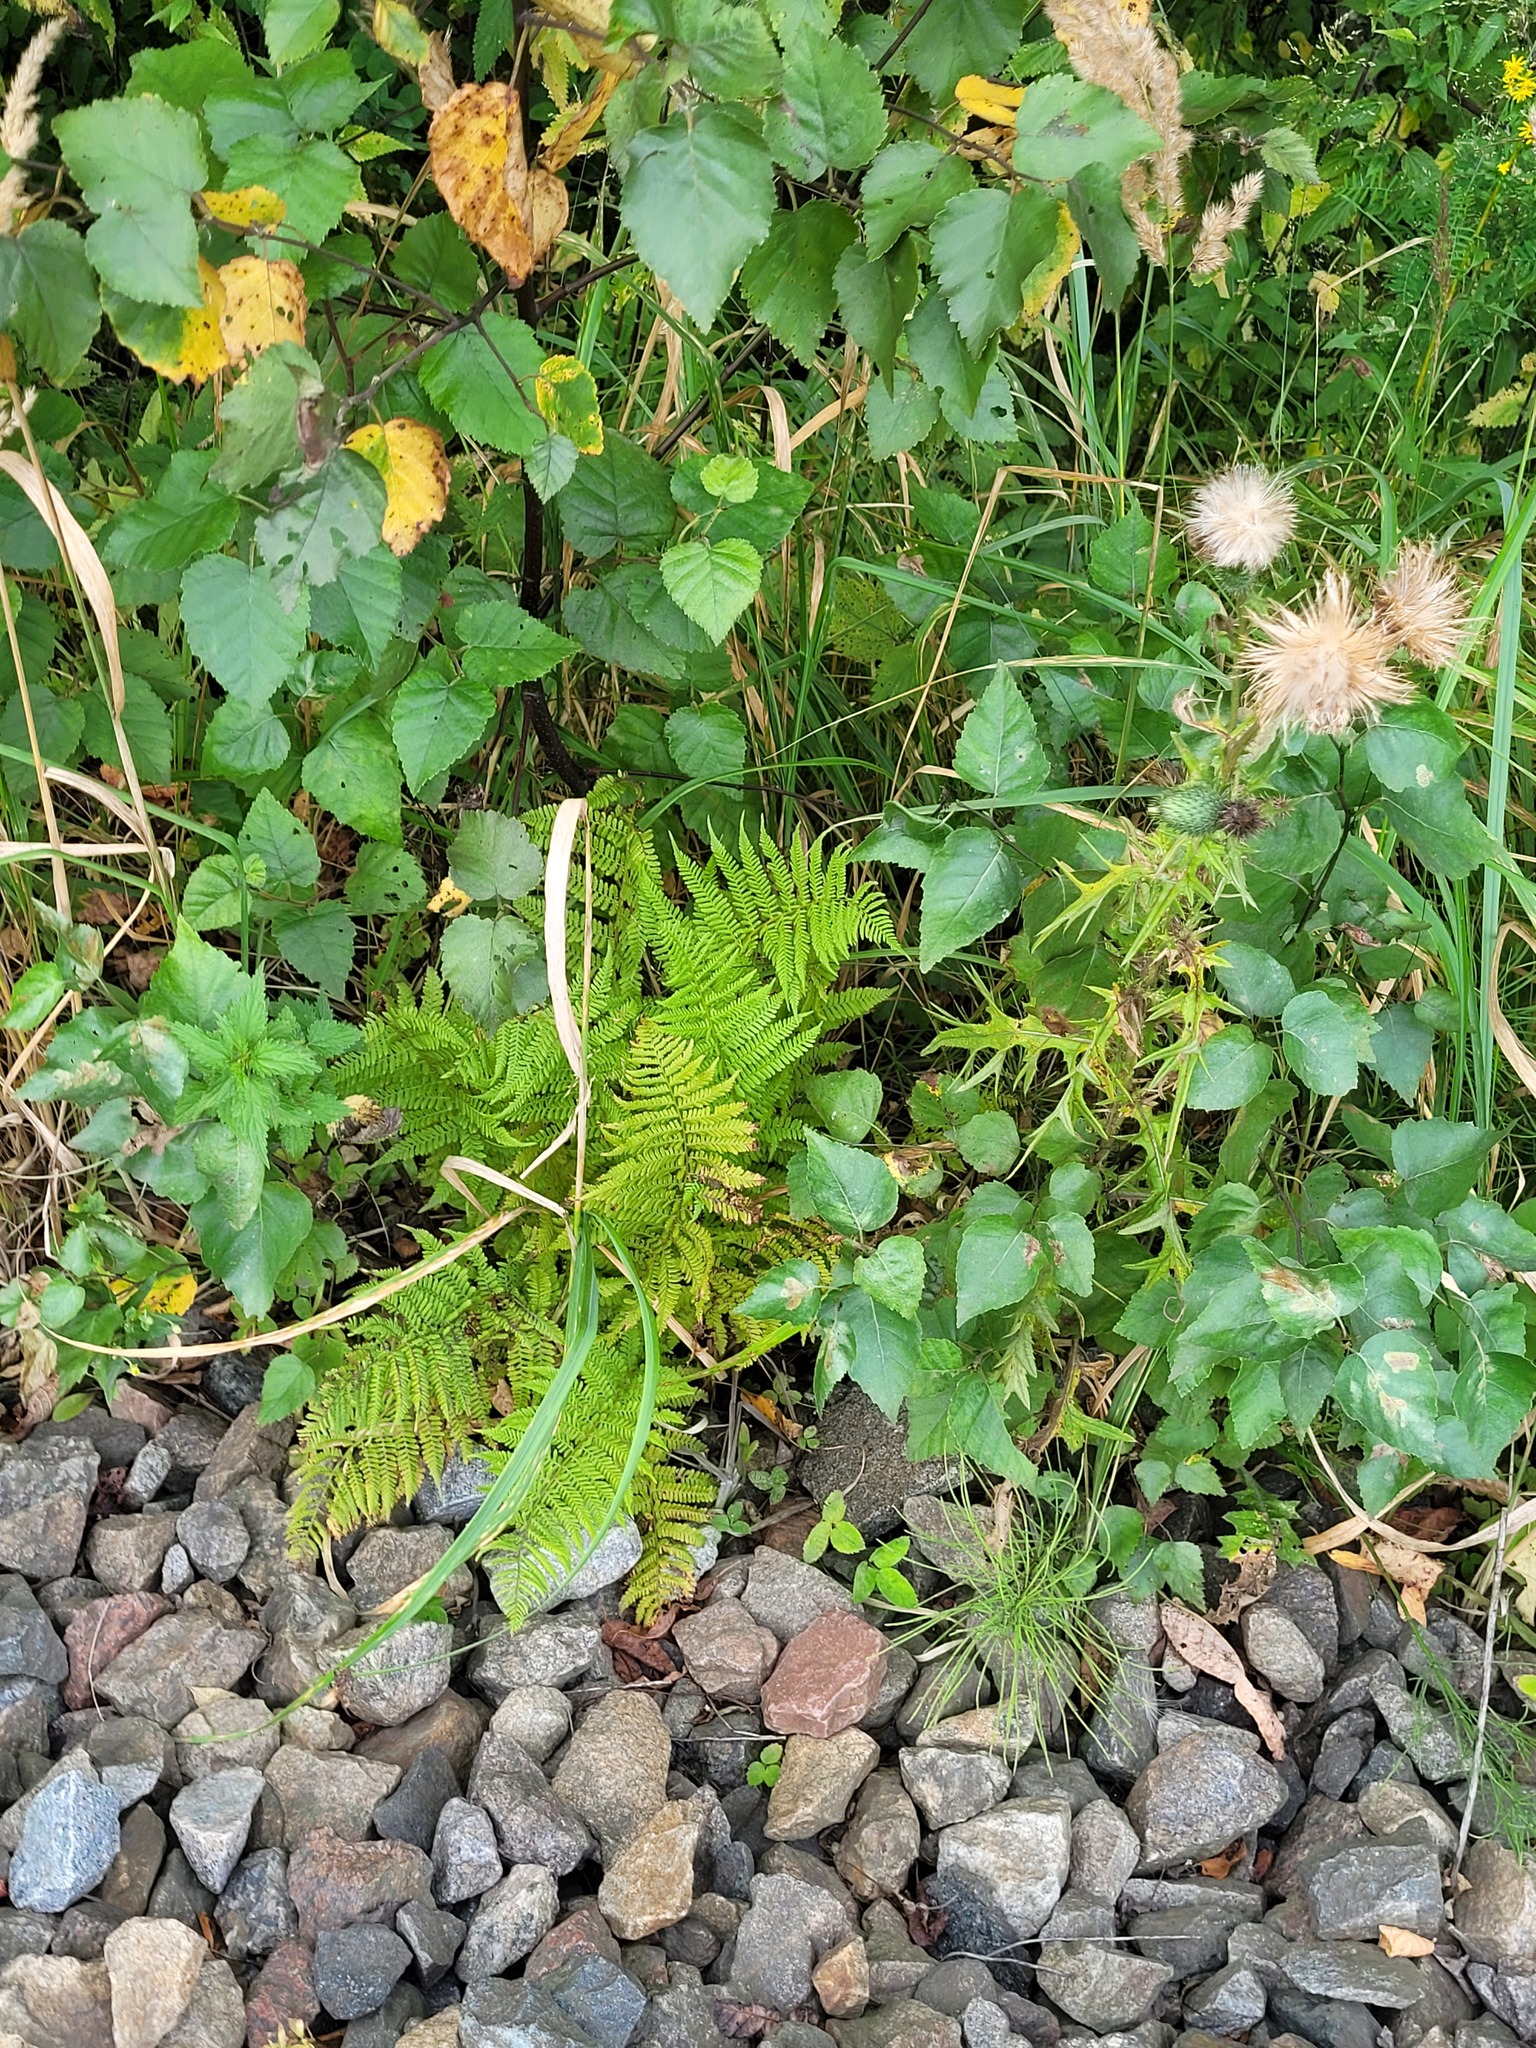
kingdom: Plantae
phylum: Tracheophyta
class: Polypodiopsida
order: Polypodiales
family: Athyriaceae
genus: Athyrium
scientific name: Athyrium filix-femina
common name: Lady fern
